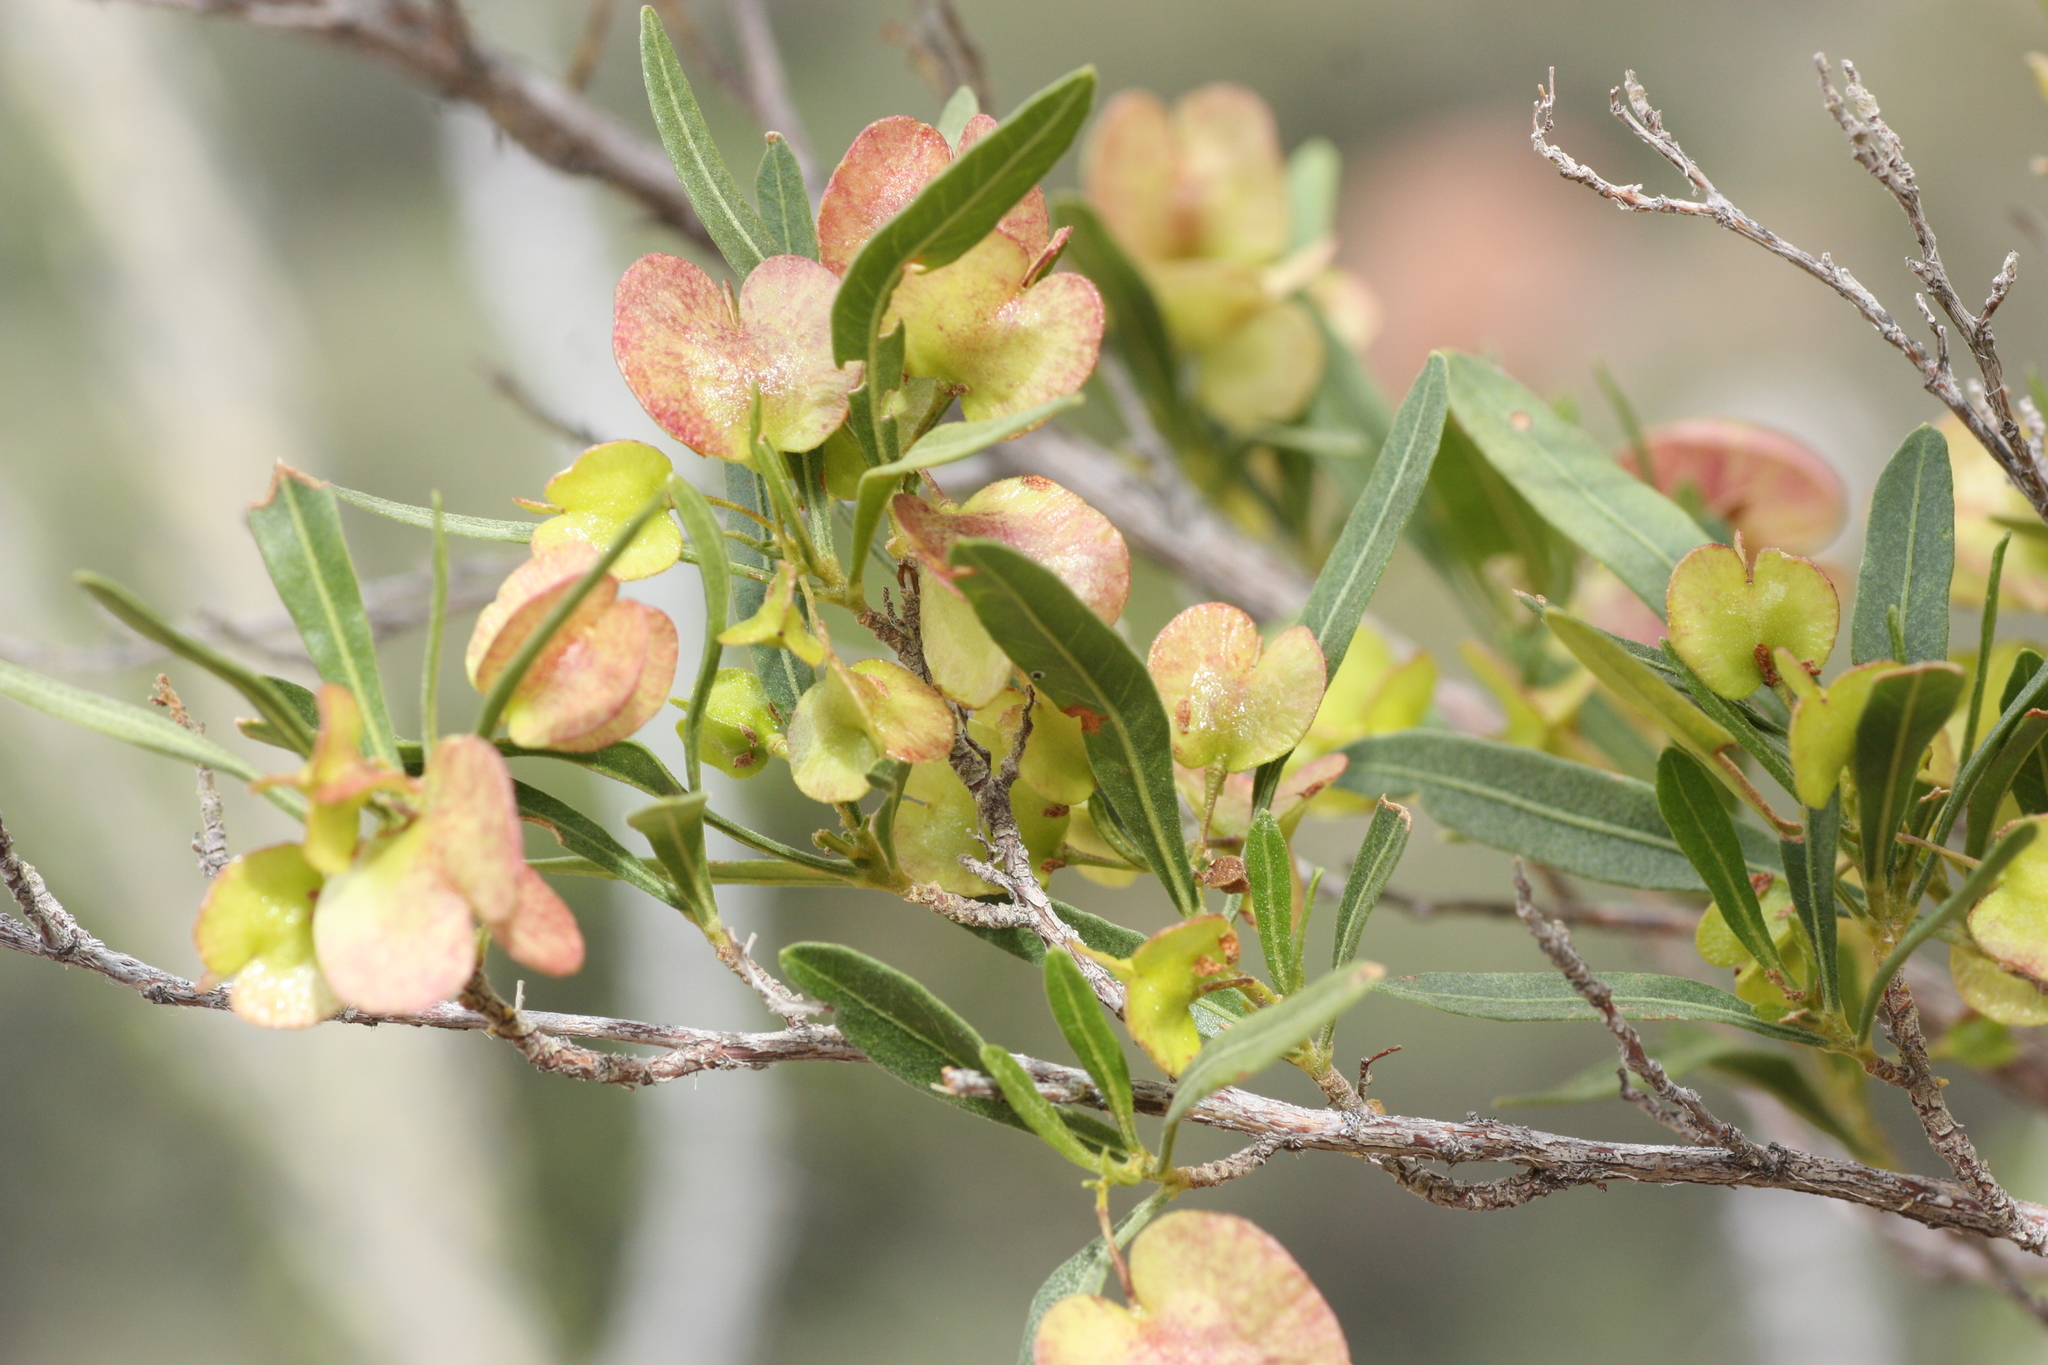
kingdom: Plantae
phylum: Tracheophyta
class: Magnoliopsida
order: Sapindales
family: Sapindaceae
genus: Dodonaea
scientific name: Dodonaea viscosa
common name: Hopbush
